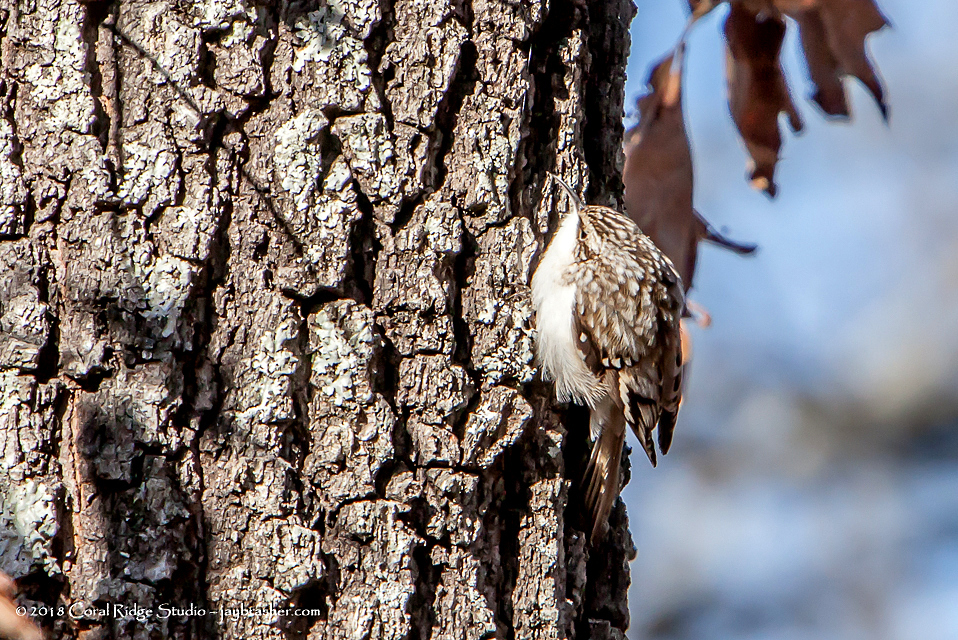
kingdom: Animalia
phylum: Chordata
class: Aves
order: Passeriformes
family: Certhiidae
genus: Certhia
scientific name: Certhia americana
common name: Brown creeper
